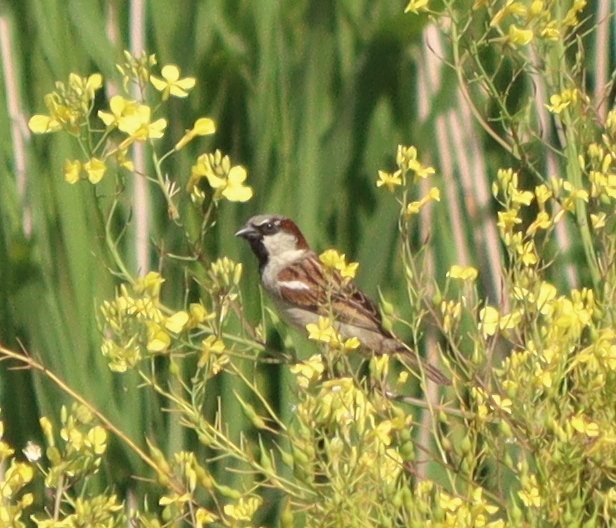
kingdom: Animalia
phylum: Chordata
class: Aves
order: Passeriformes
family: Passeridae
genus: Passer
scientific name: Passer domesticus
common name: House sparrow
